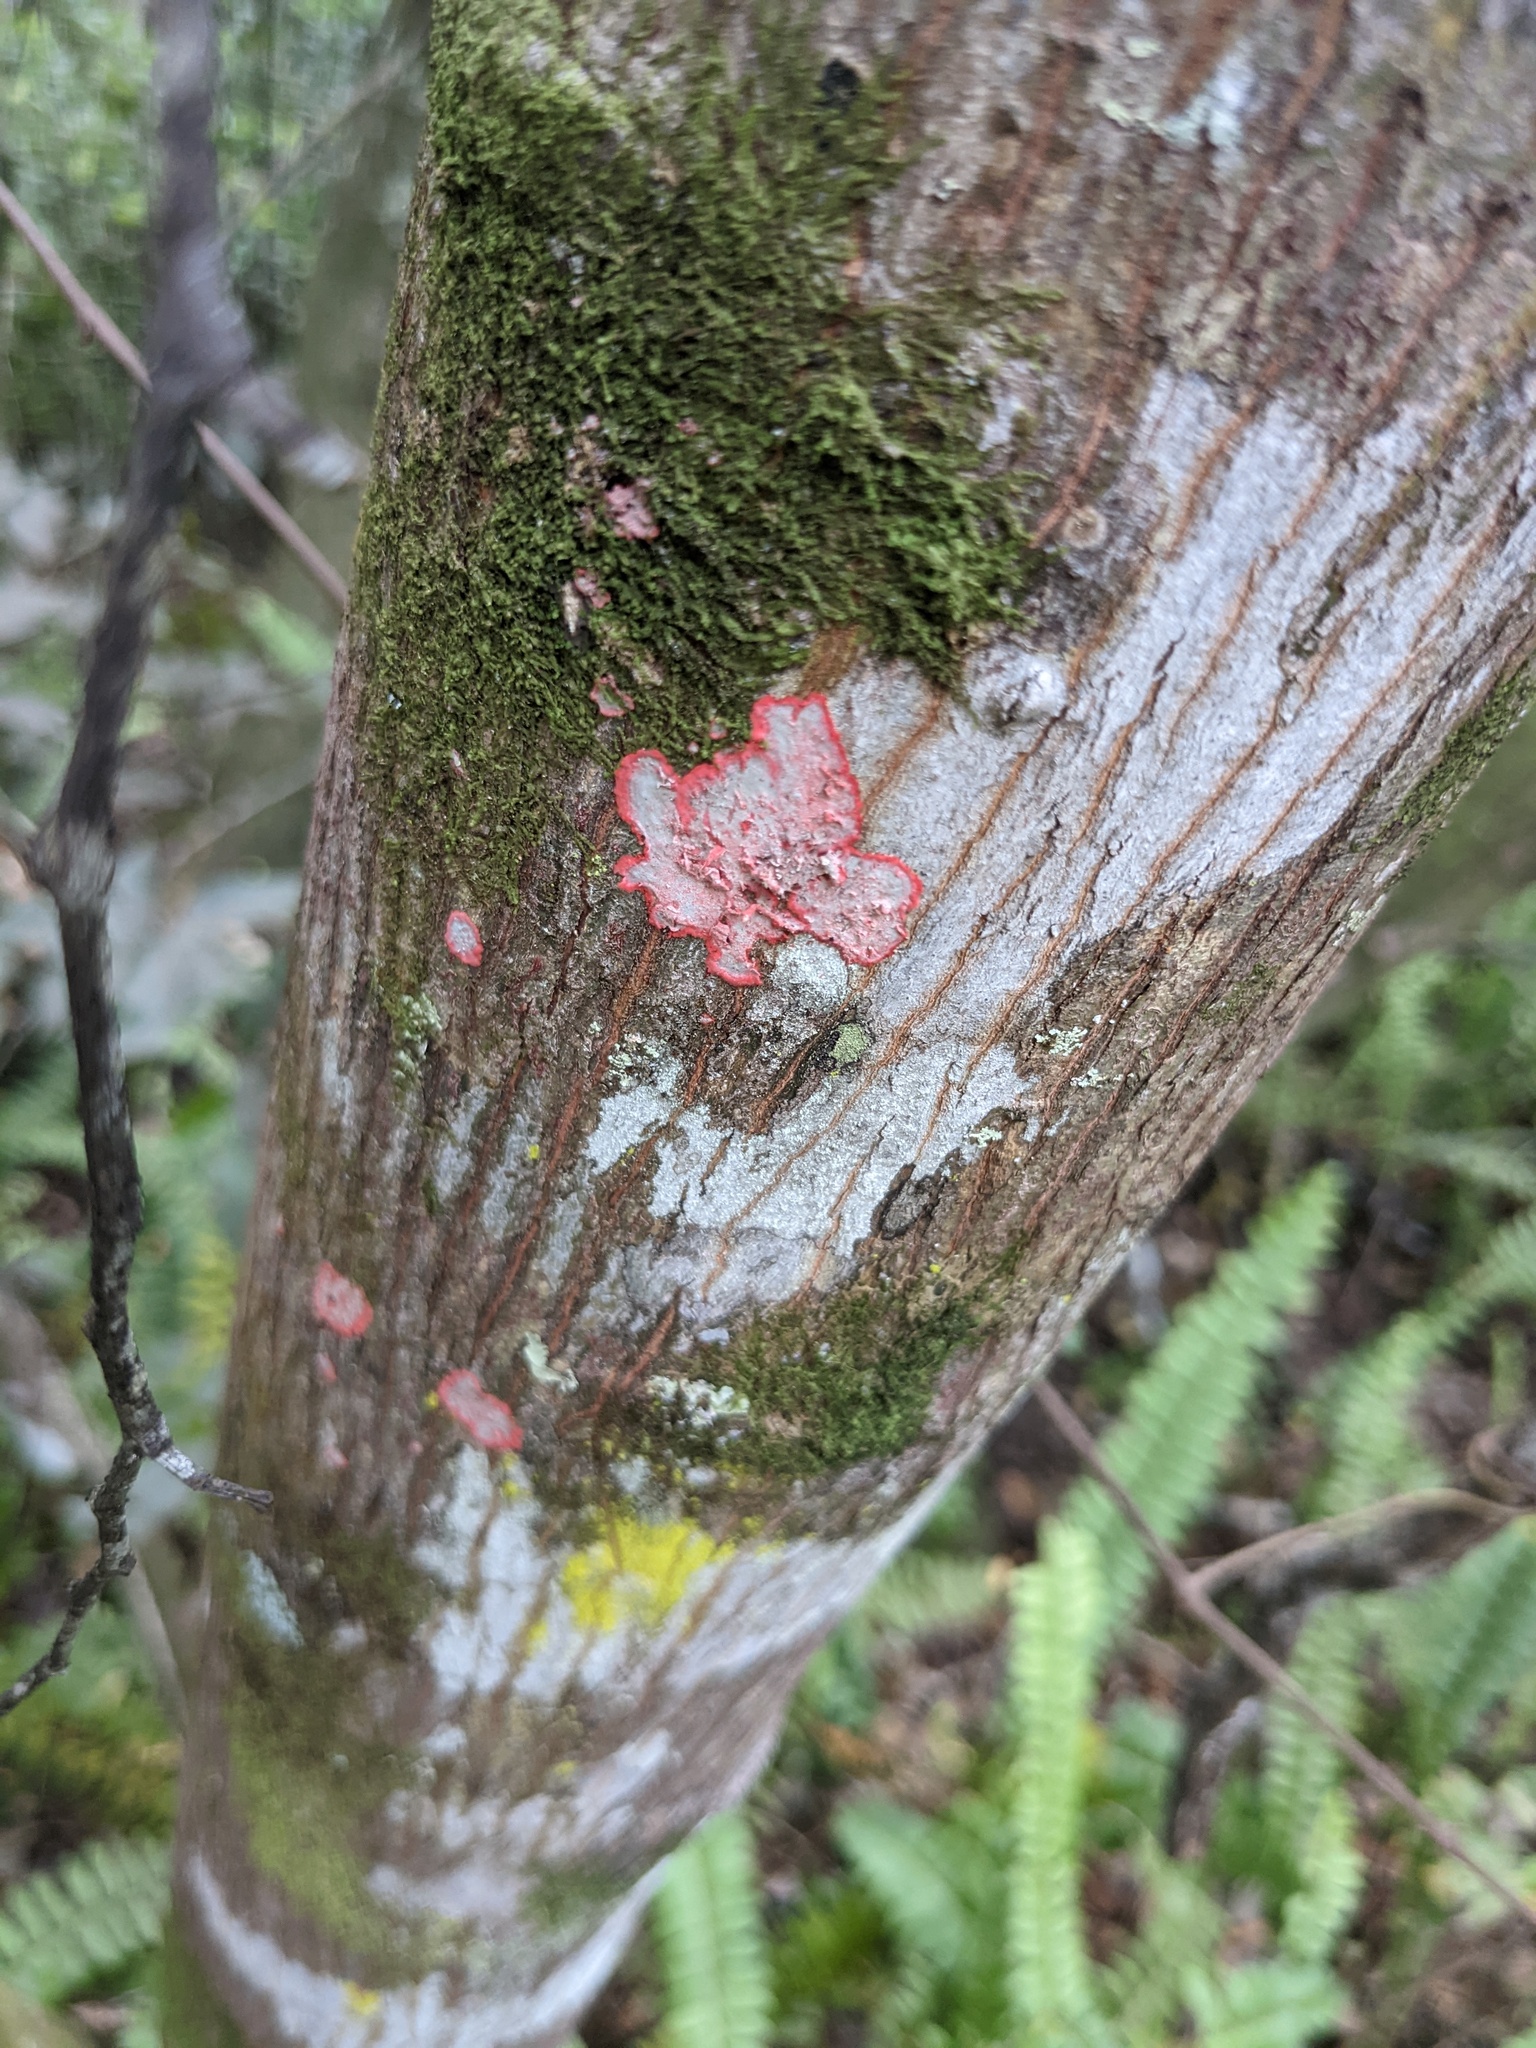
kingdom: Fungi
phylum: Ascomycota
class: Arthoniomycetes
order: Arthoniales
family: Arthoniaceae
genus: Herpothallon
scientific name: Herpothallon rubrocinctum
